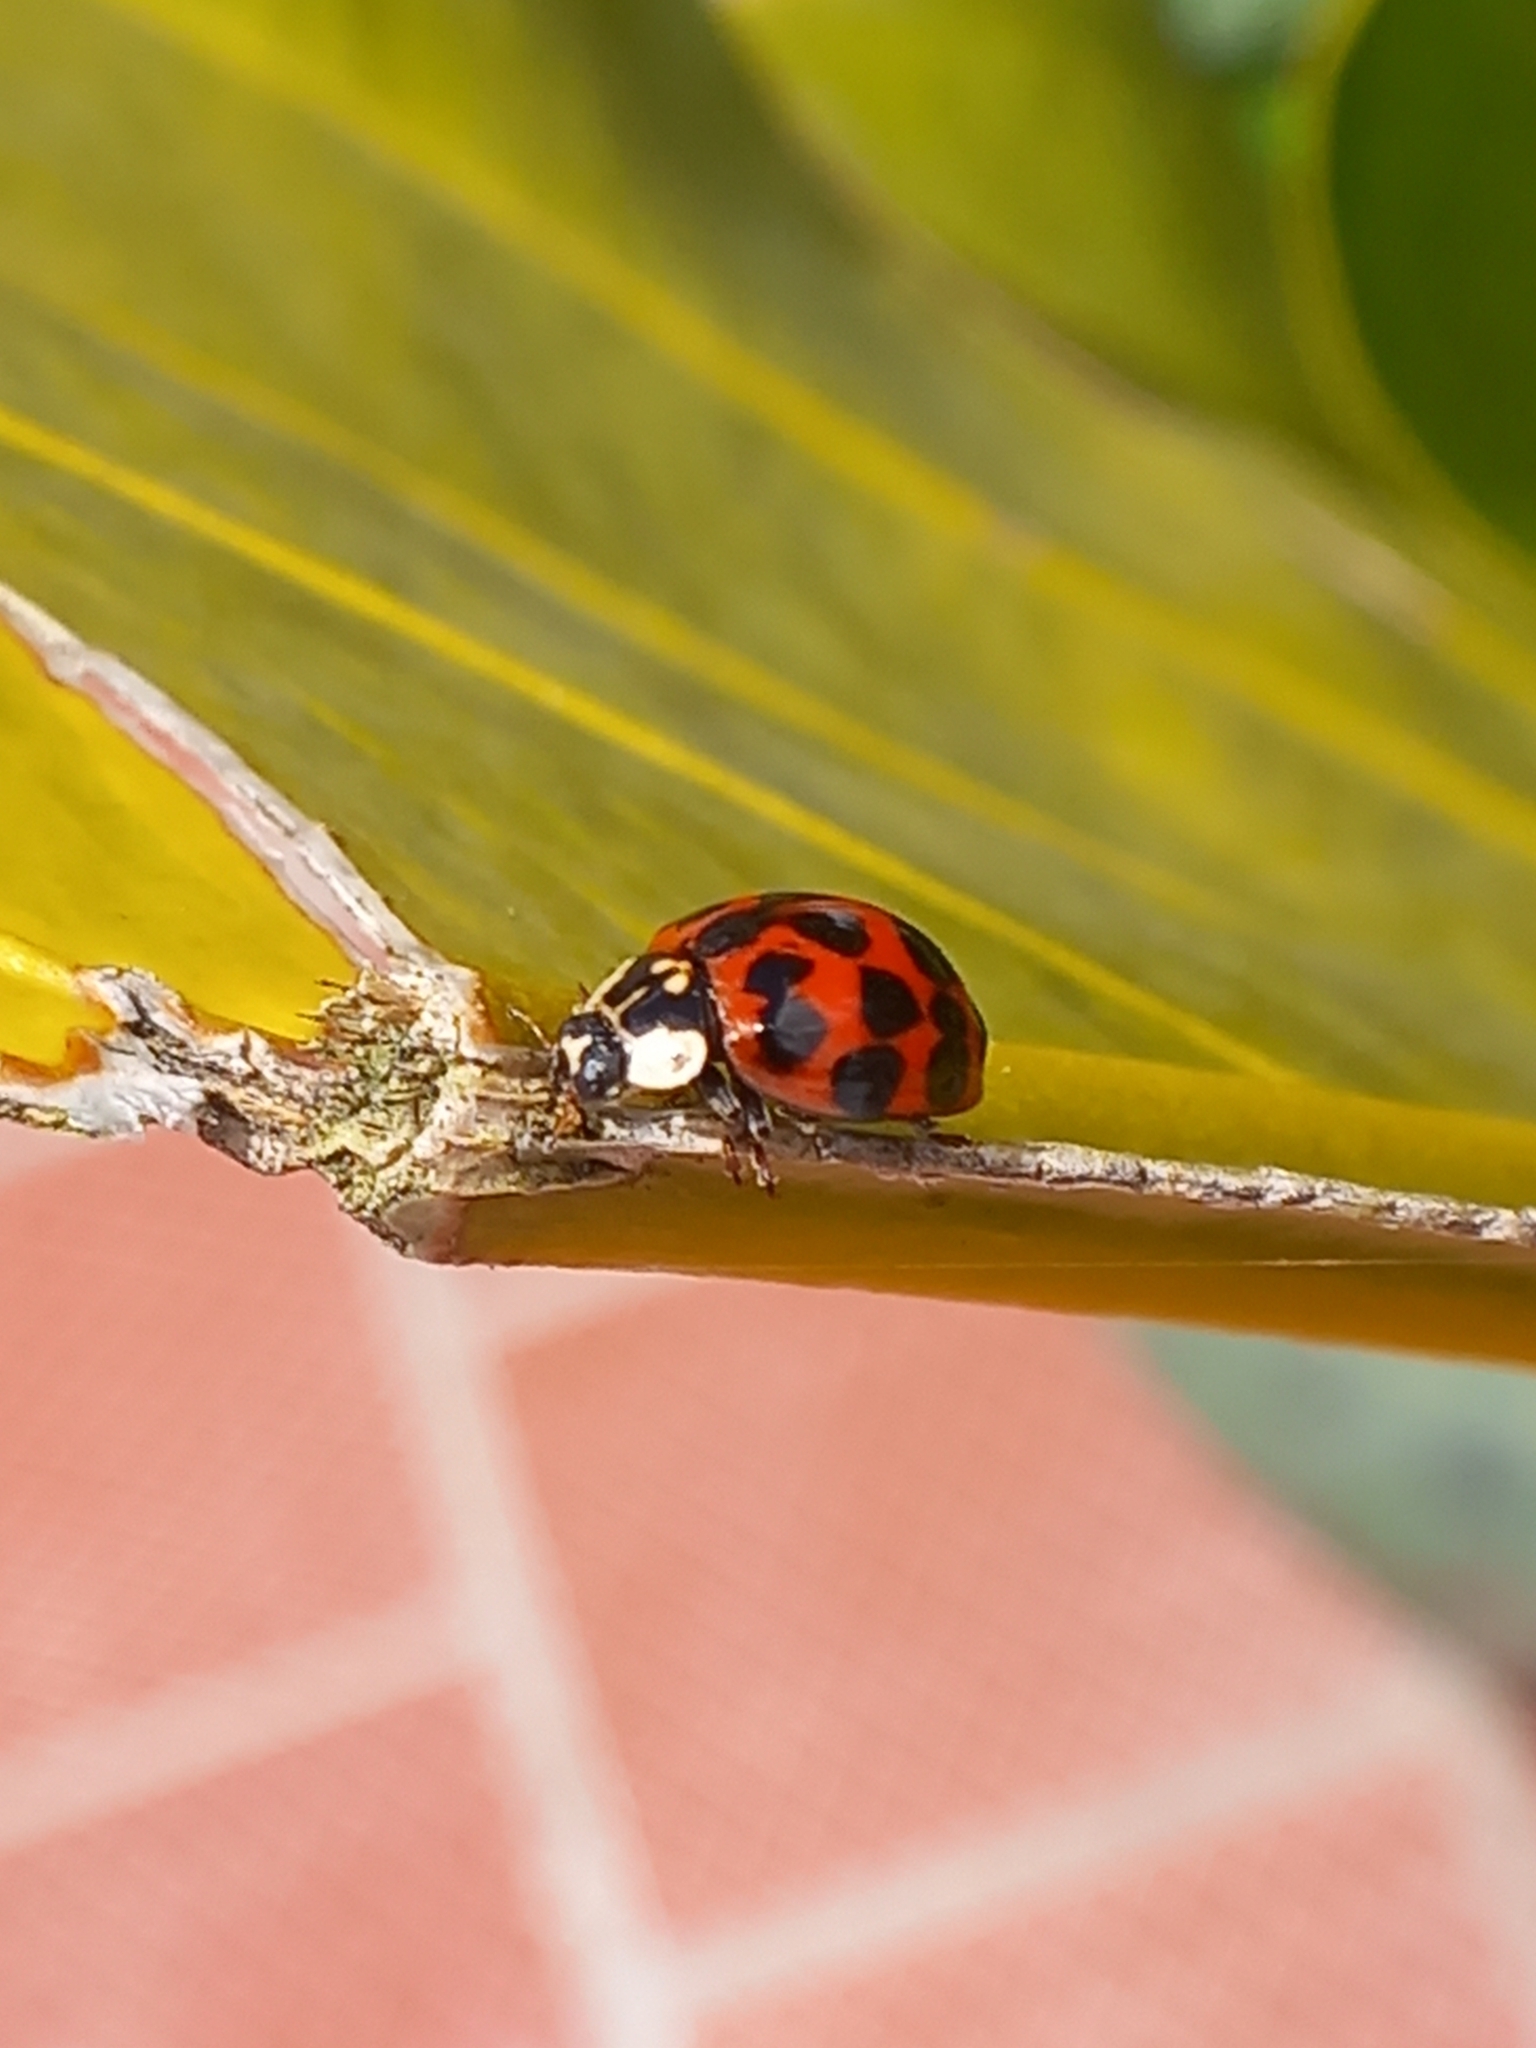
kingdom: Animalia
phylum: Arthropoda
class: Insecta
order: Coleoptera
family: Coccinellidae
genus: Harmonia
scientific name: Harmonia axyridis
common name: Harlequin ladybird
